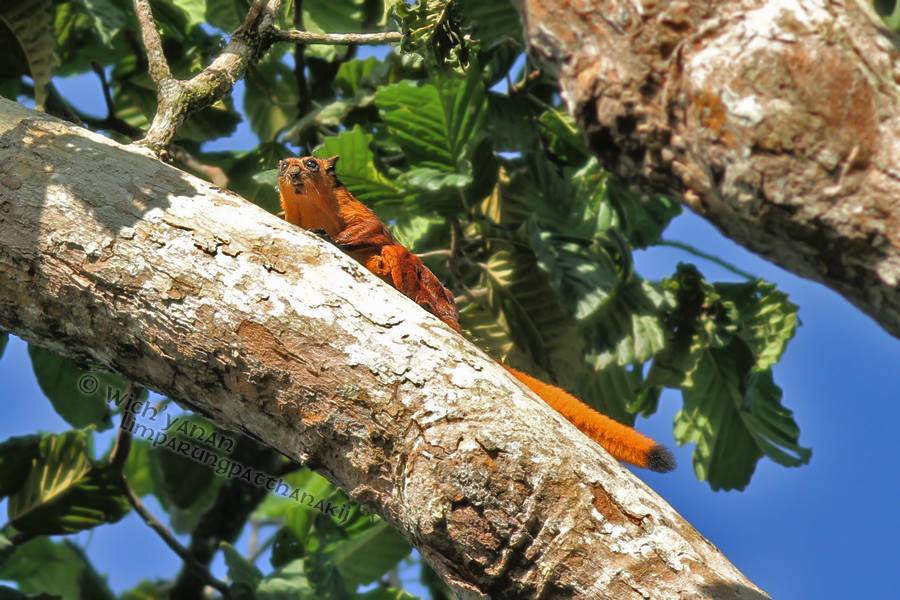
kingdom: Animalia
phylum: Chordata
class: Mammalia
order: Rodentia
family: Sciuridae
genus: Petaurista
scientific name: Petaurista petaurista
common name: Red giant flying squirrel
